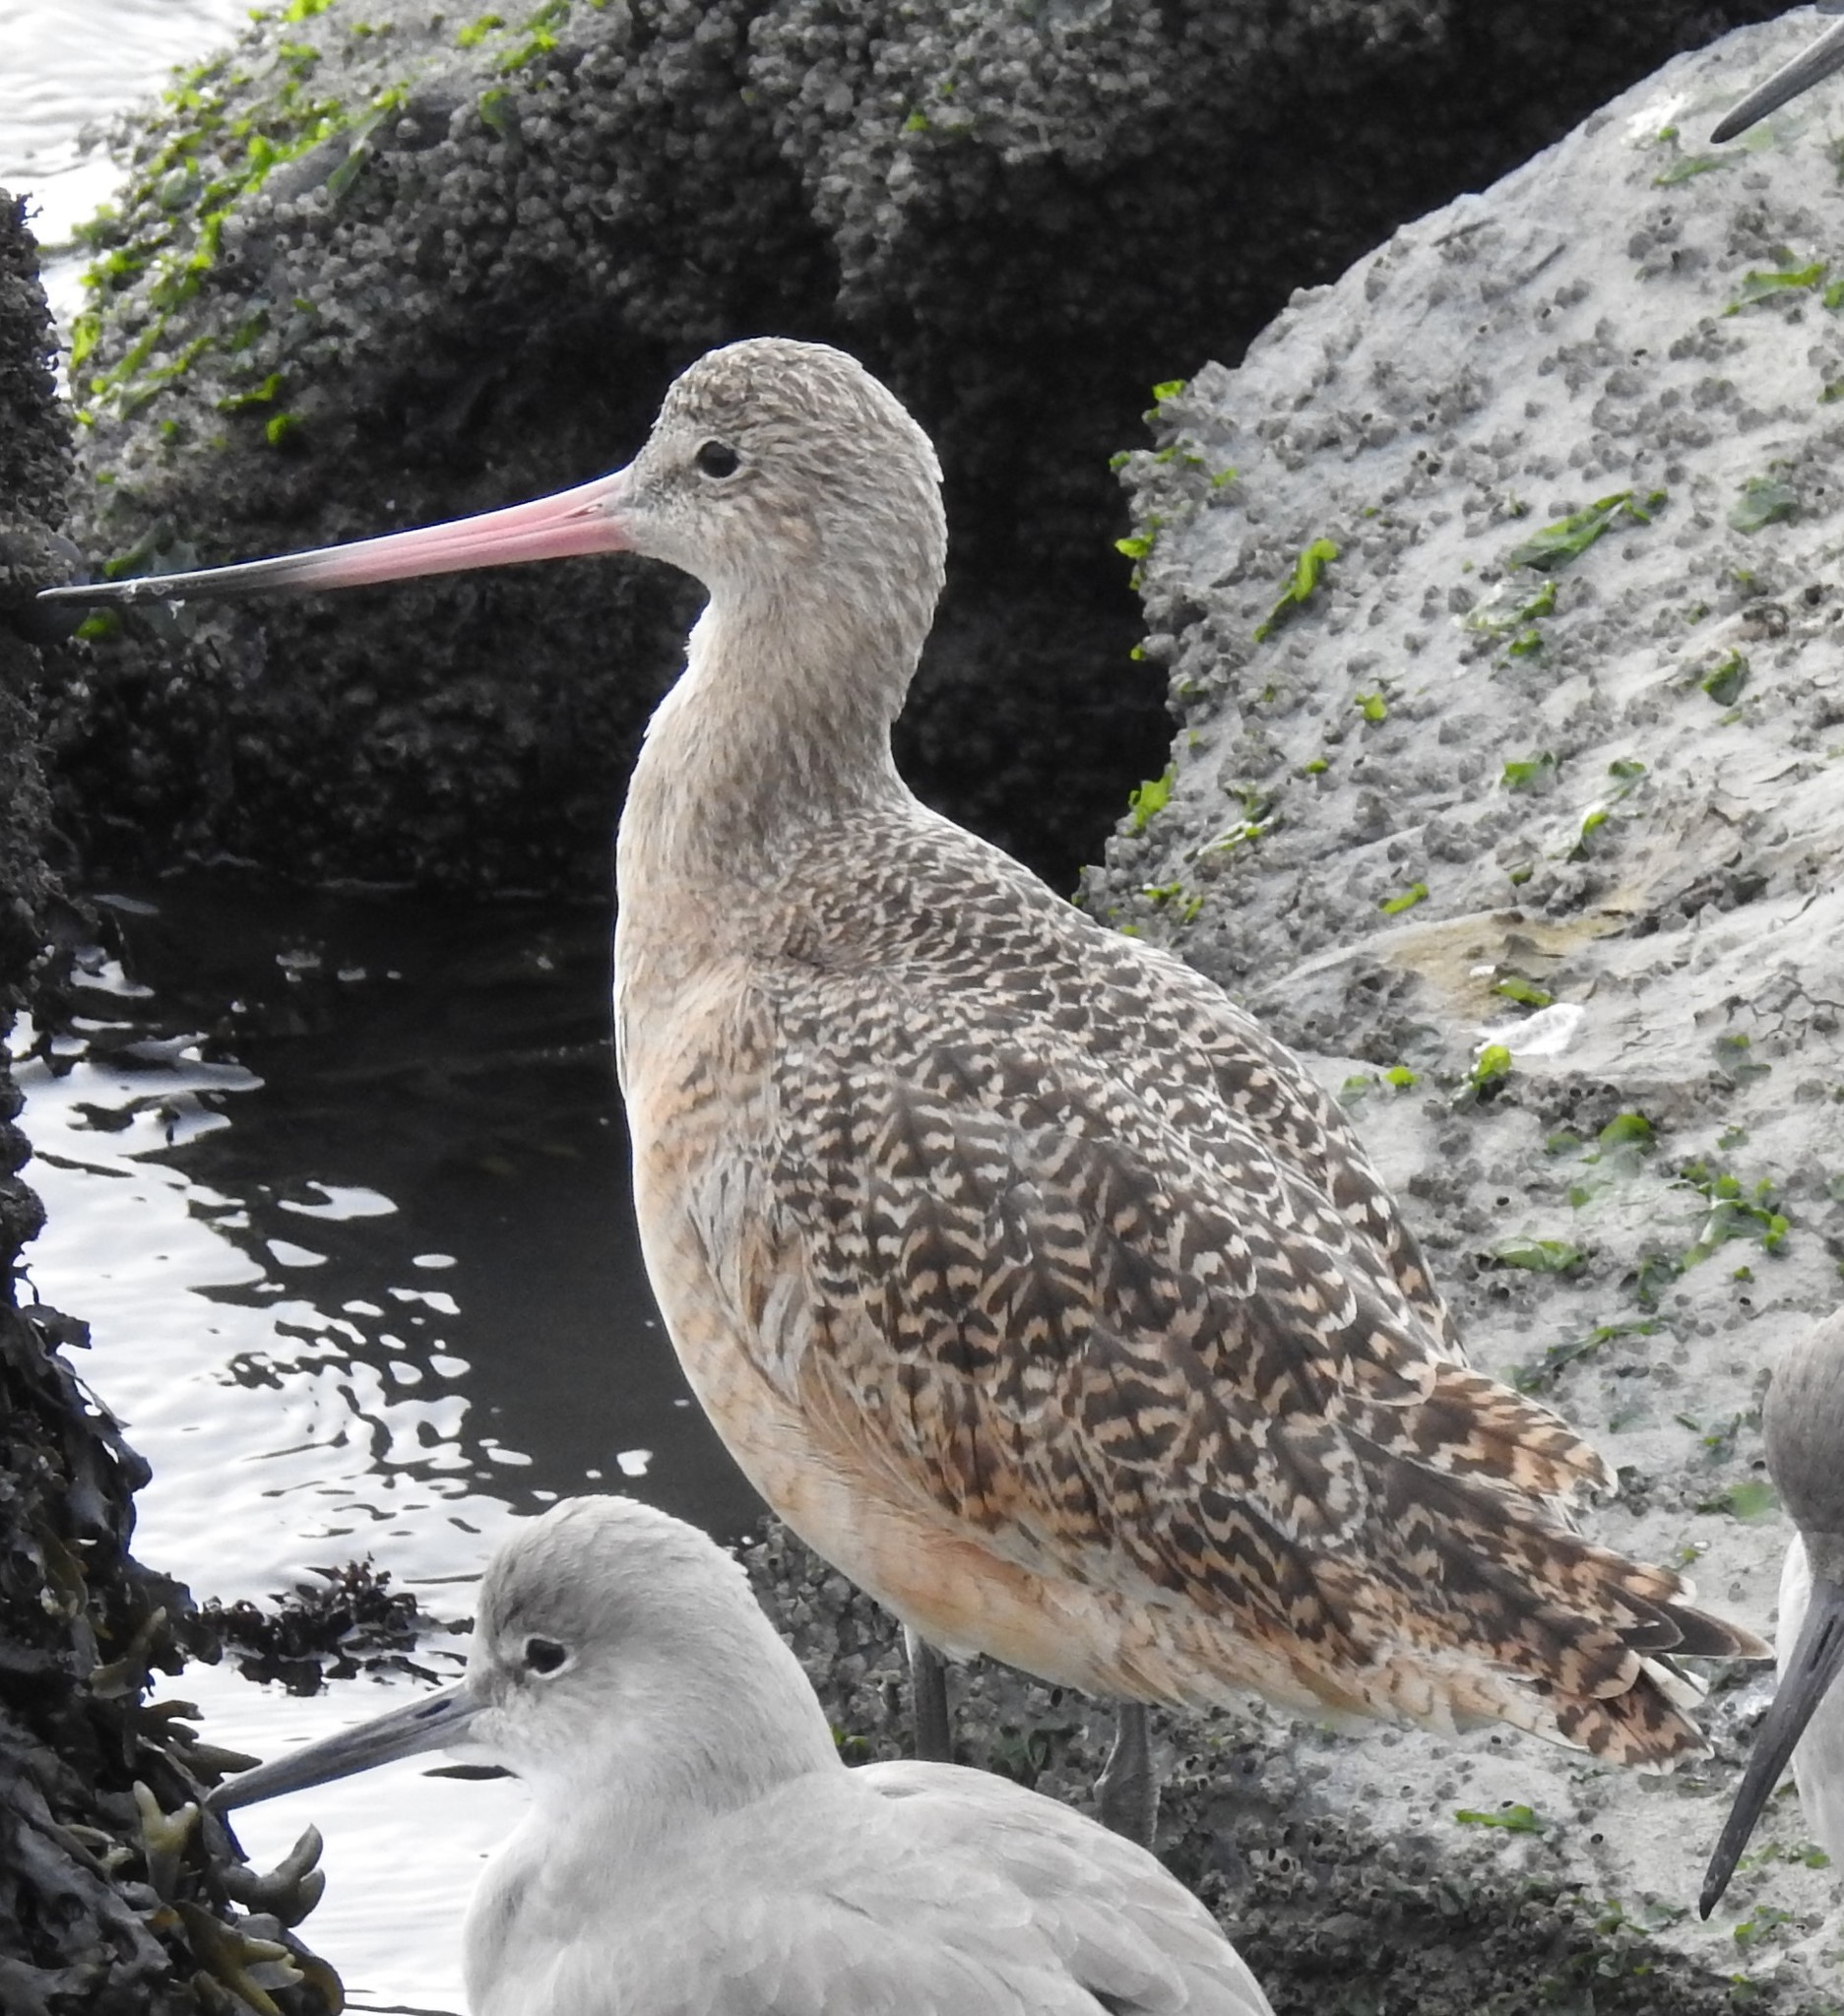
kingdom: Animalia
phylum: Chordata
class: Aves
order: Charadriiformes
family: Scolopacidae
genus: Limosa
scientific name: Limosa fedoa
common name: Marbled godwit
